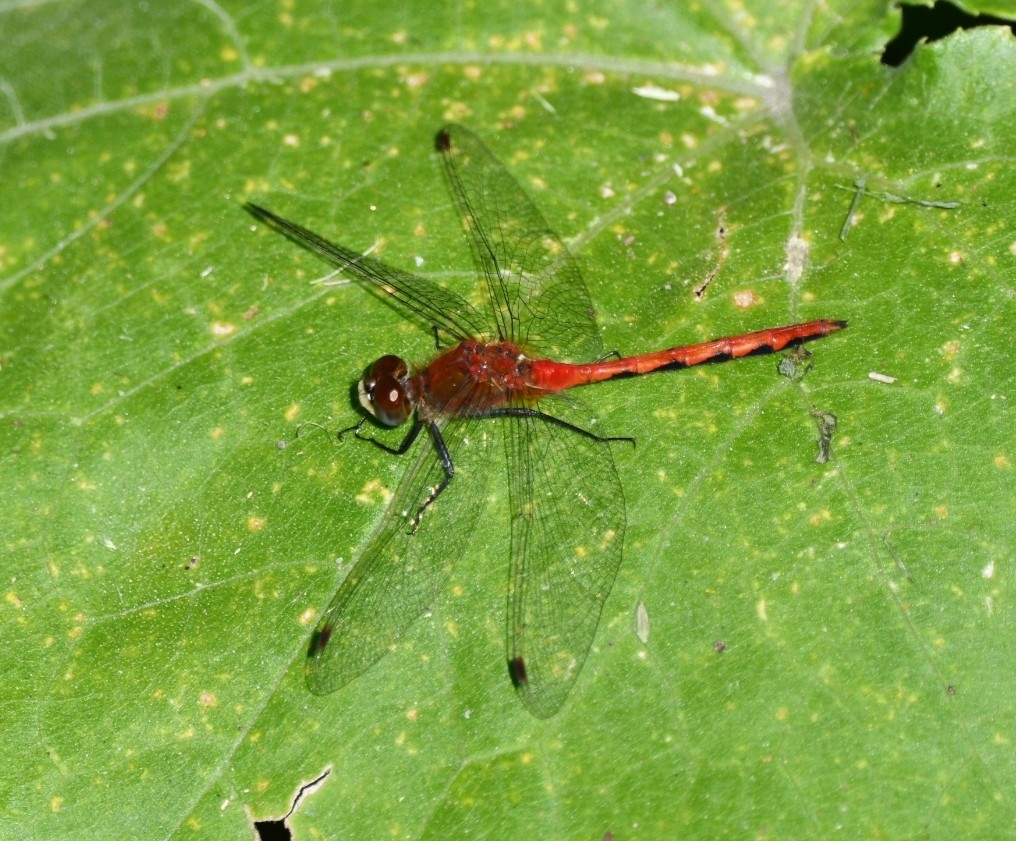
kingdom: Animalia
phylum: Arthropoda
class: Insecta
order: Odonata
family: Libellulidae
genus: Sympetrum
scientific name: Sympetrum obtrusum
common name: White-faced meadowhawk
